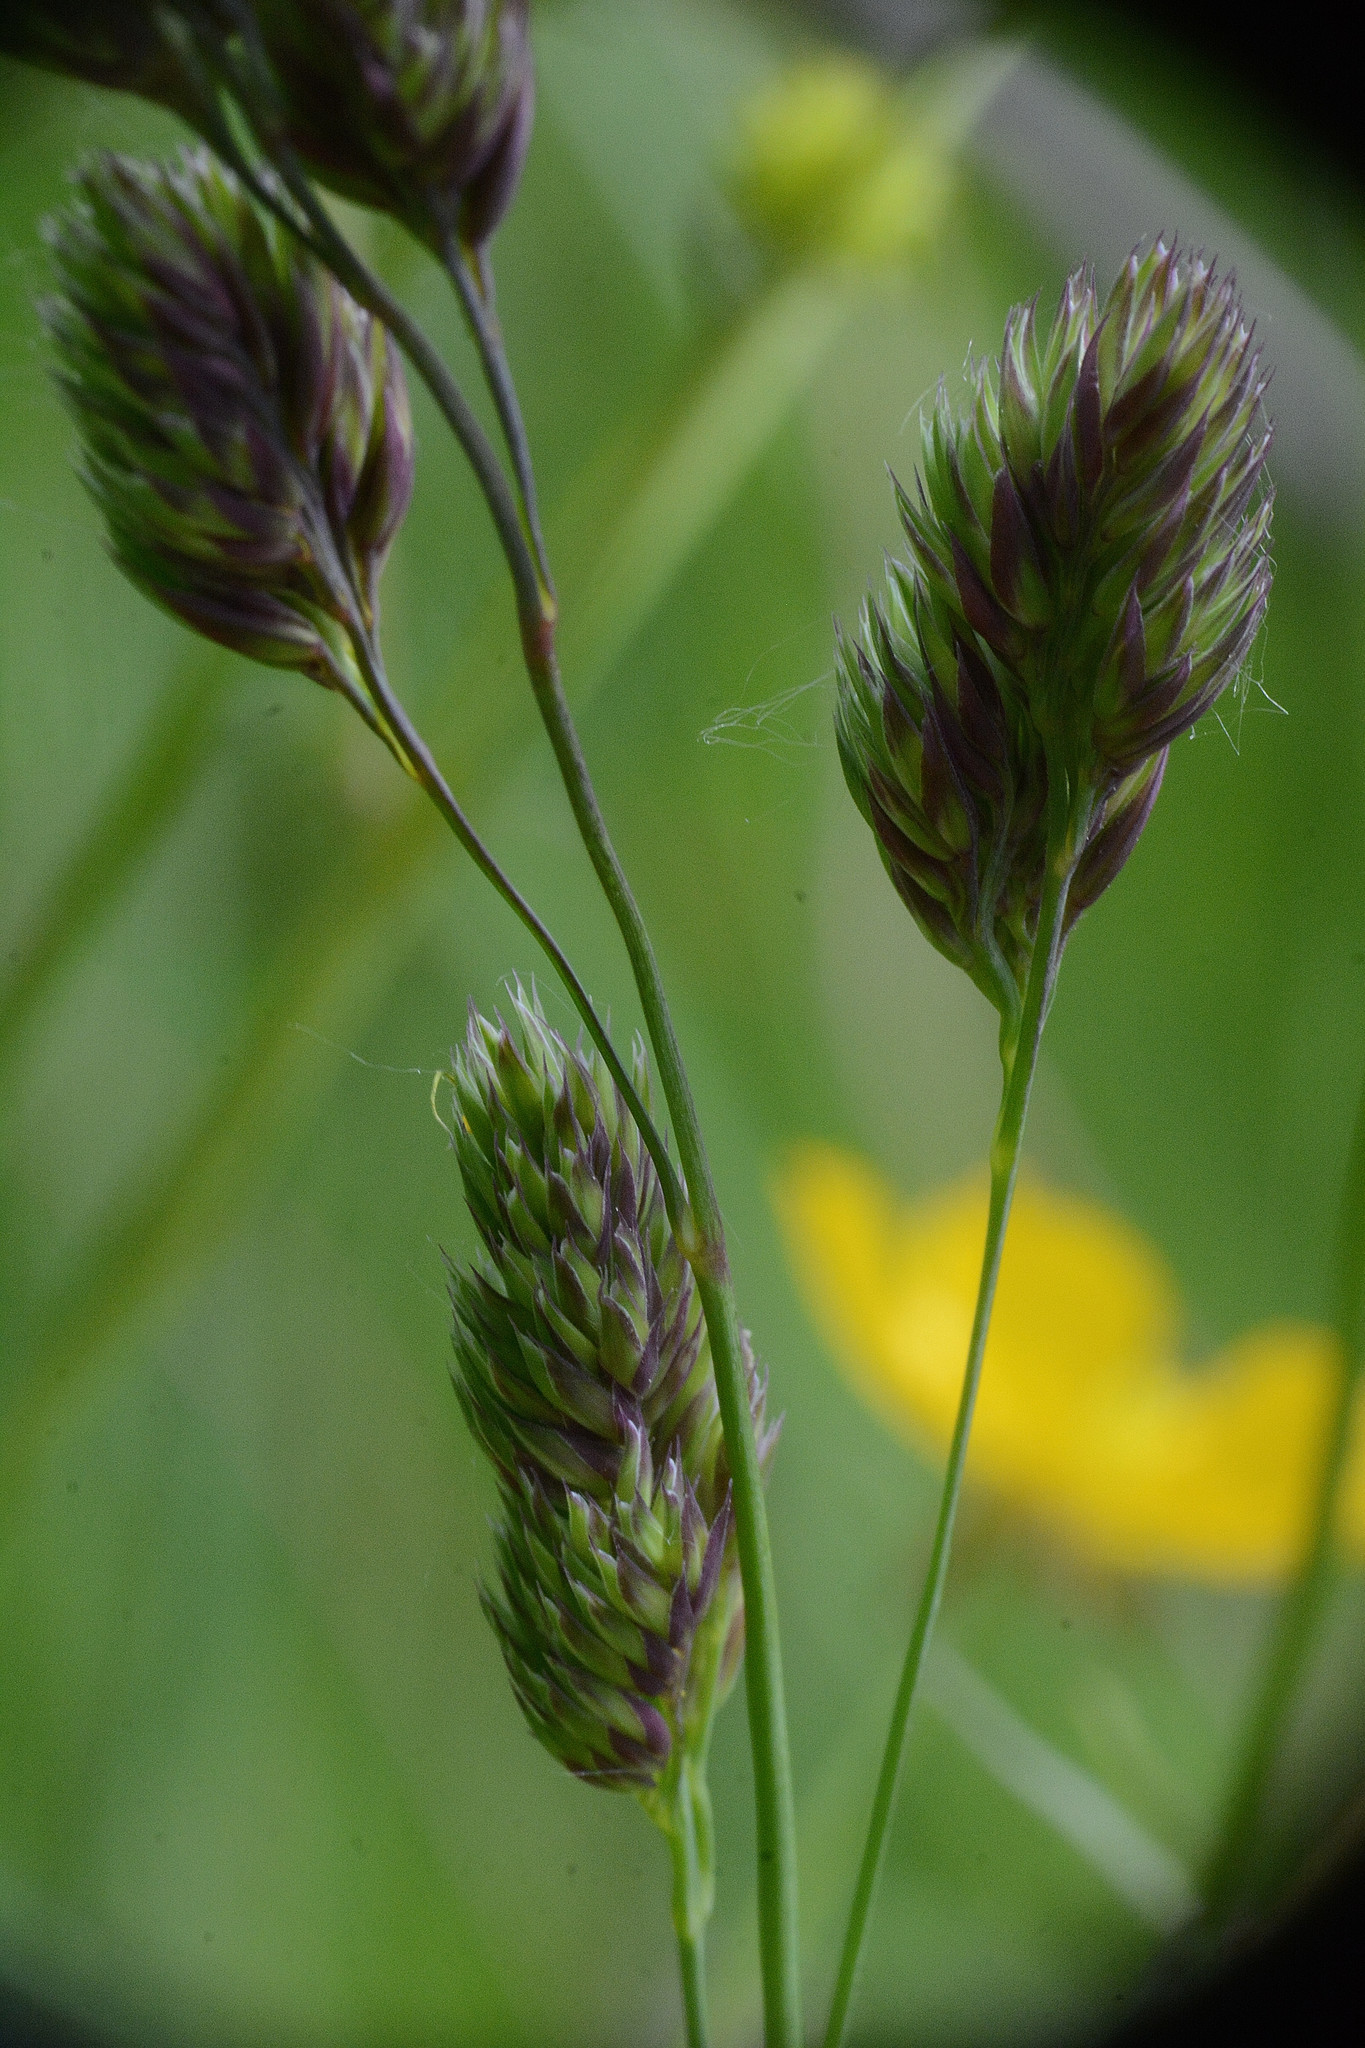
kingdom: Plantae
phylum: Tracheophyta
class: Liliopsida
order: Poales
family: Poaceae
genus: Dactylis
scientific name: Dactylis glomerata
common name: Orchardgrass
